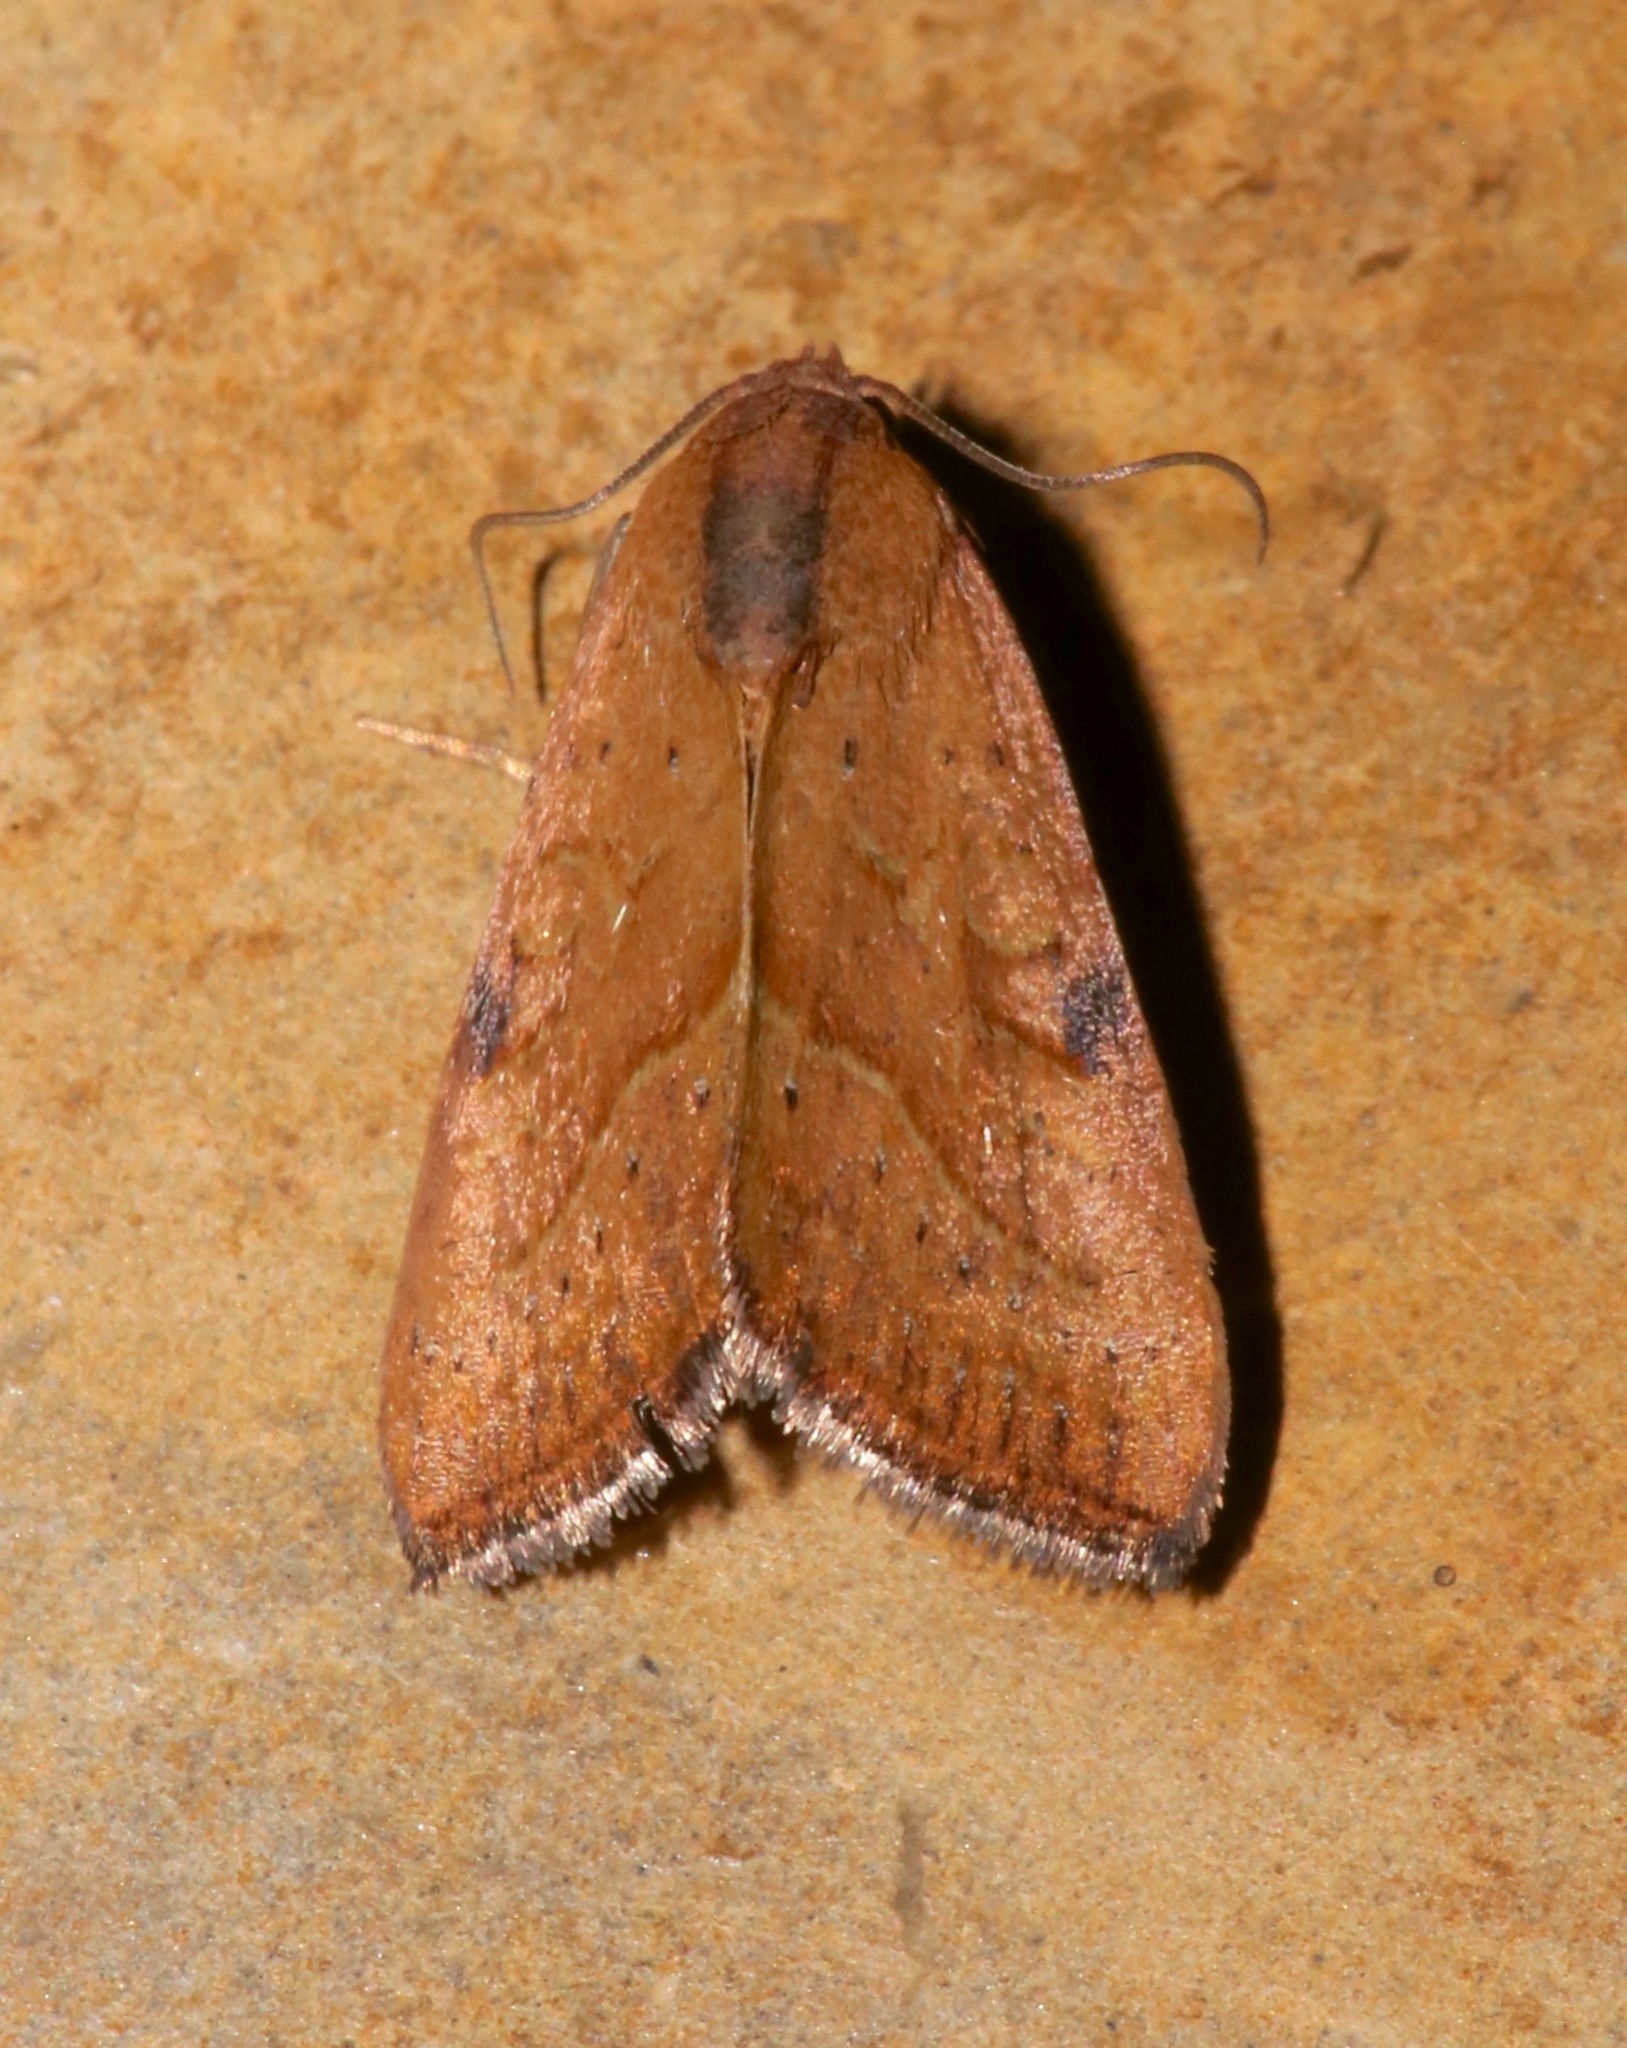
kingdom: Animalia
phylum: Arthropoda
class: Insecta
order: Lepidoptera
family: Noctuidae
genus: Galgula
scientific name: Galgula partita
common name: Wedgeling
